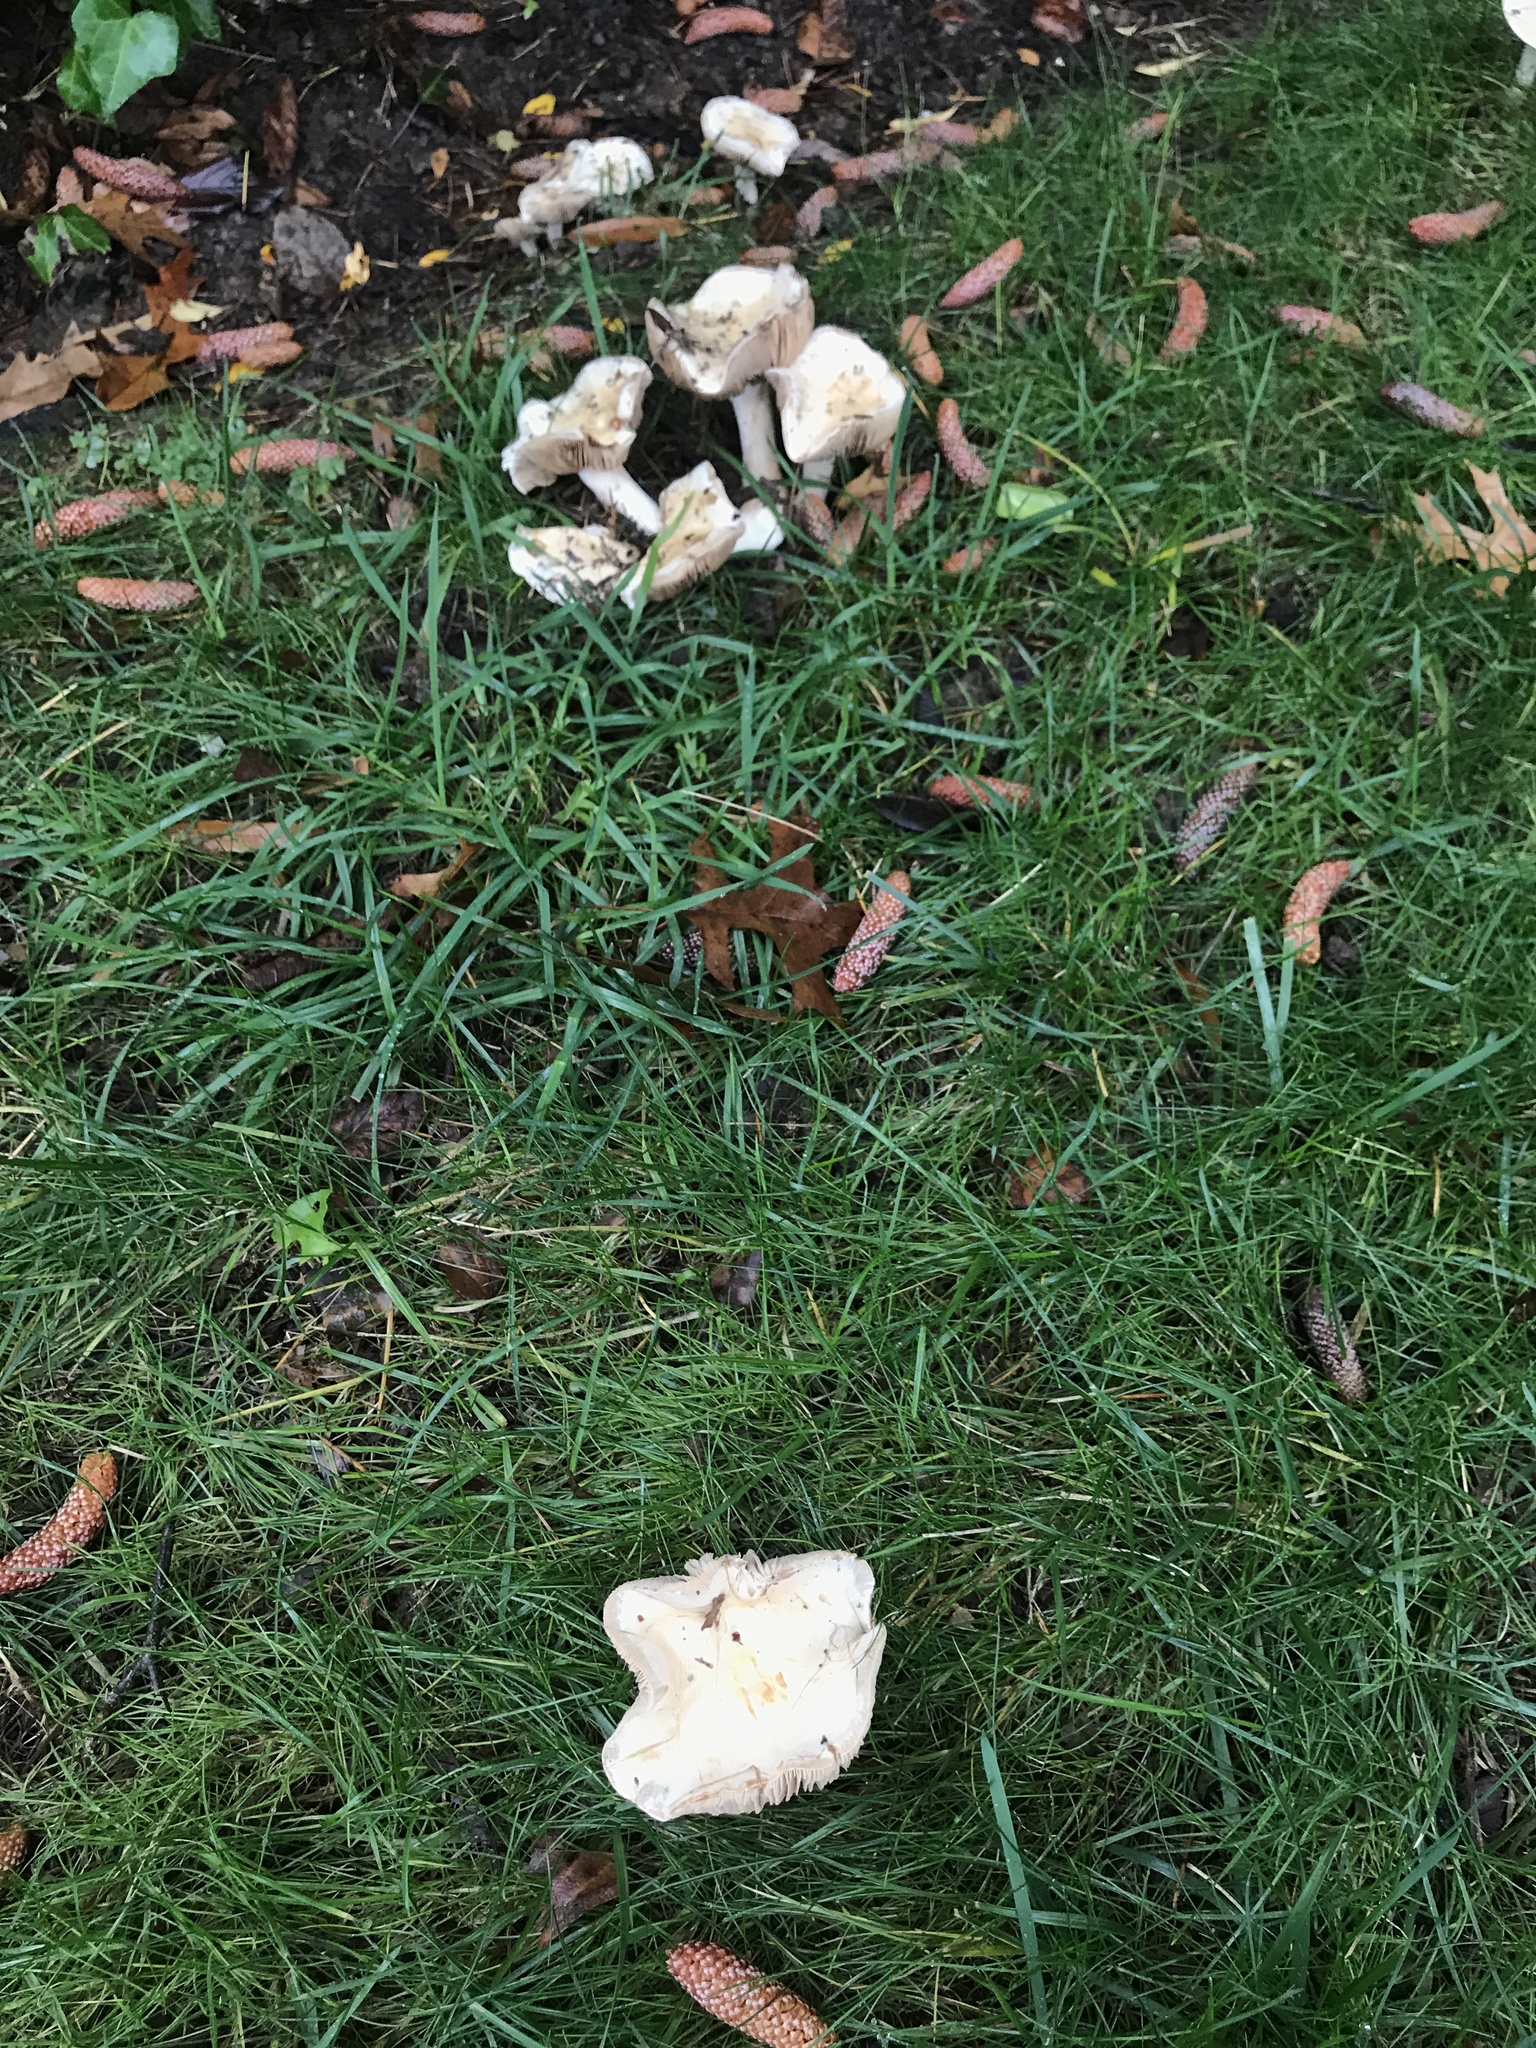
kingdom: Fungi
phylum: Basidiomycota
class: Agaricomycetes
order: Agaricales
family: Hymenogastraceae
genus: Hebeloma
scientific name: Hebeloma crustuliniforme
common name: Poison pie
